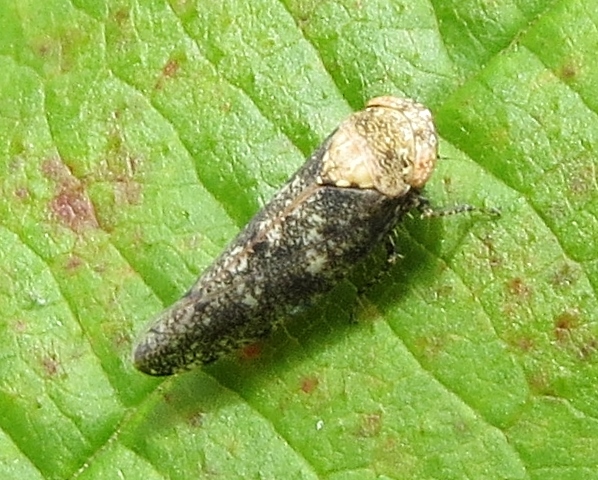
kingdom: Animalia
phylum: Arthropoda
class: Insecta
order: Hemiptera
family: Cicadellidae
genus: Paraphlepsius
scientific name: Paraphlepsius collitus
